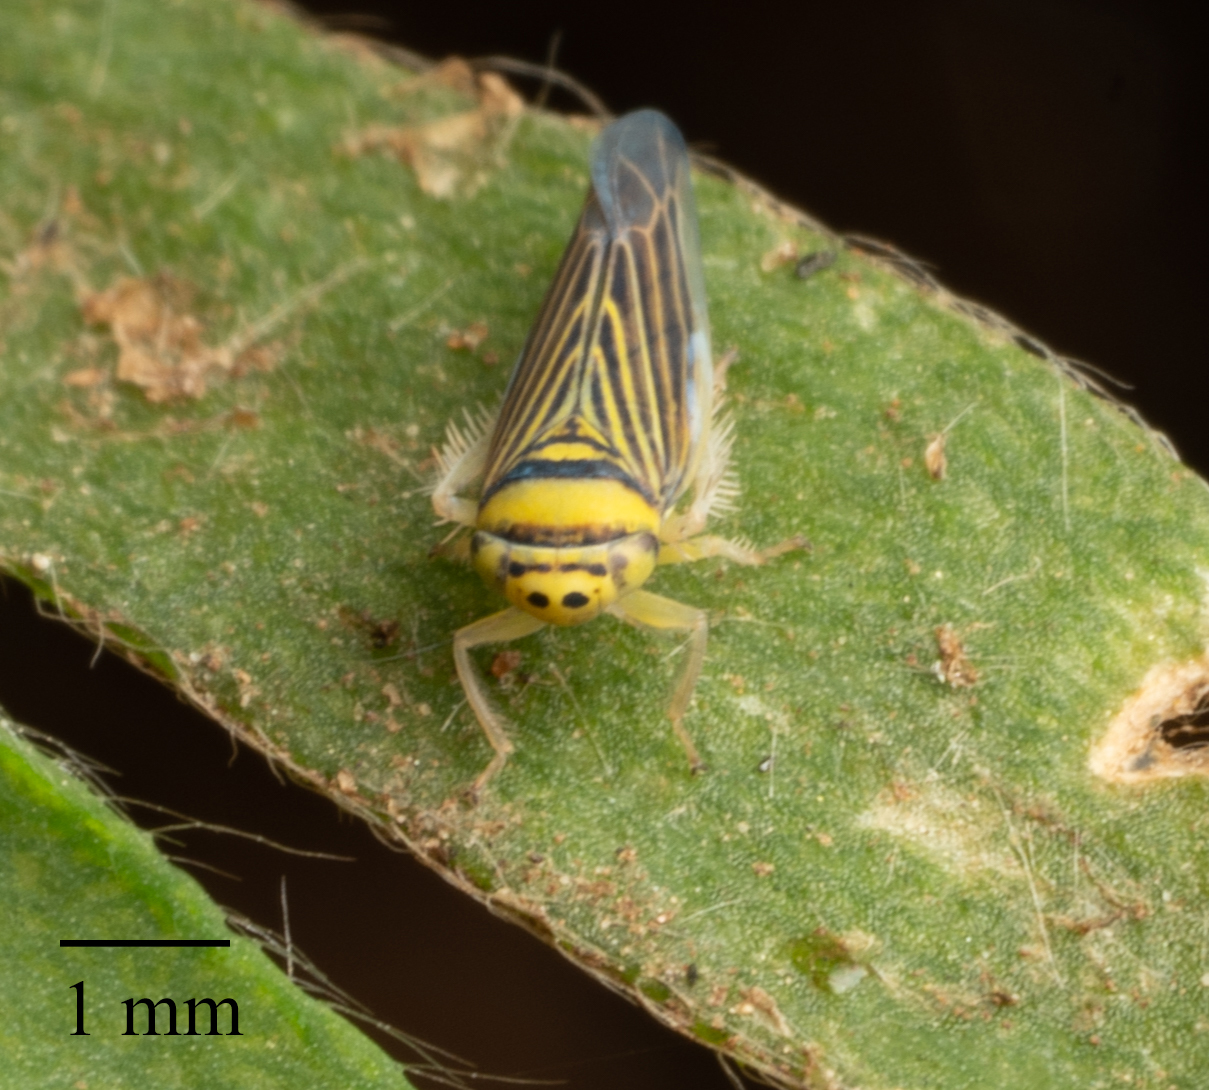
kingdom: Animalia
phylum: Arthropoda
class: Insecta
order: Hemiptera
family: Cicadellidae
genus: Colladonus
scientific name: Colladonus belli
